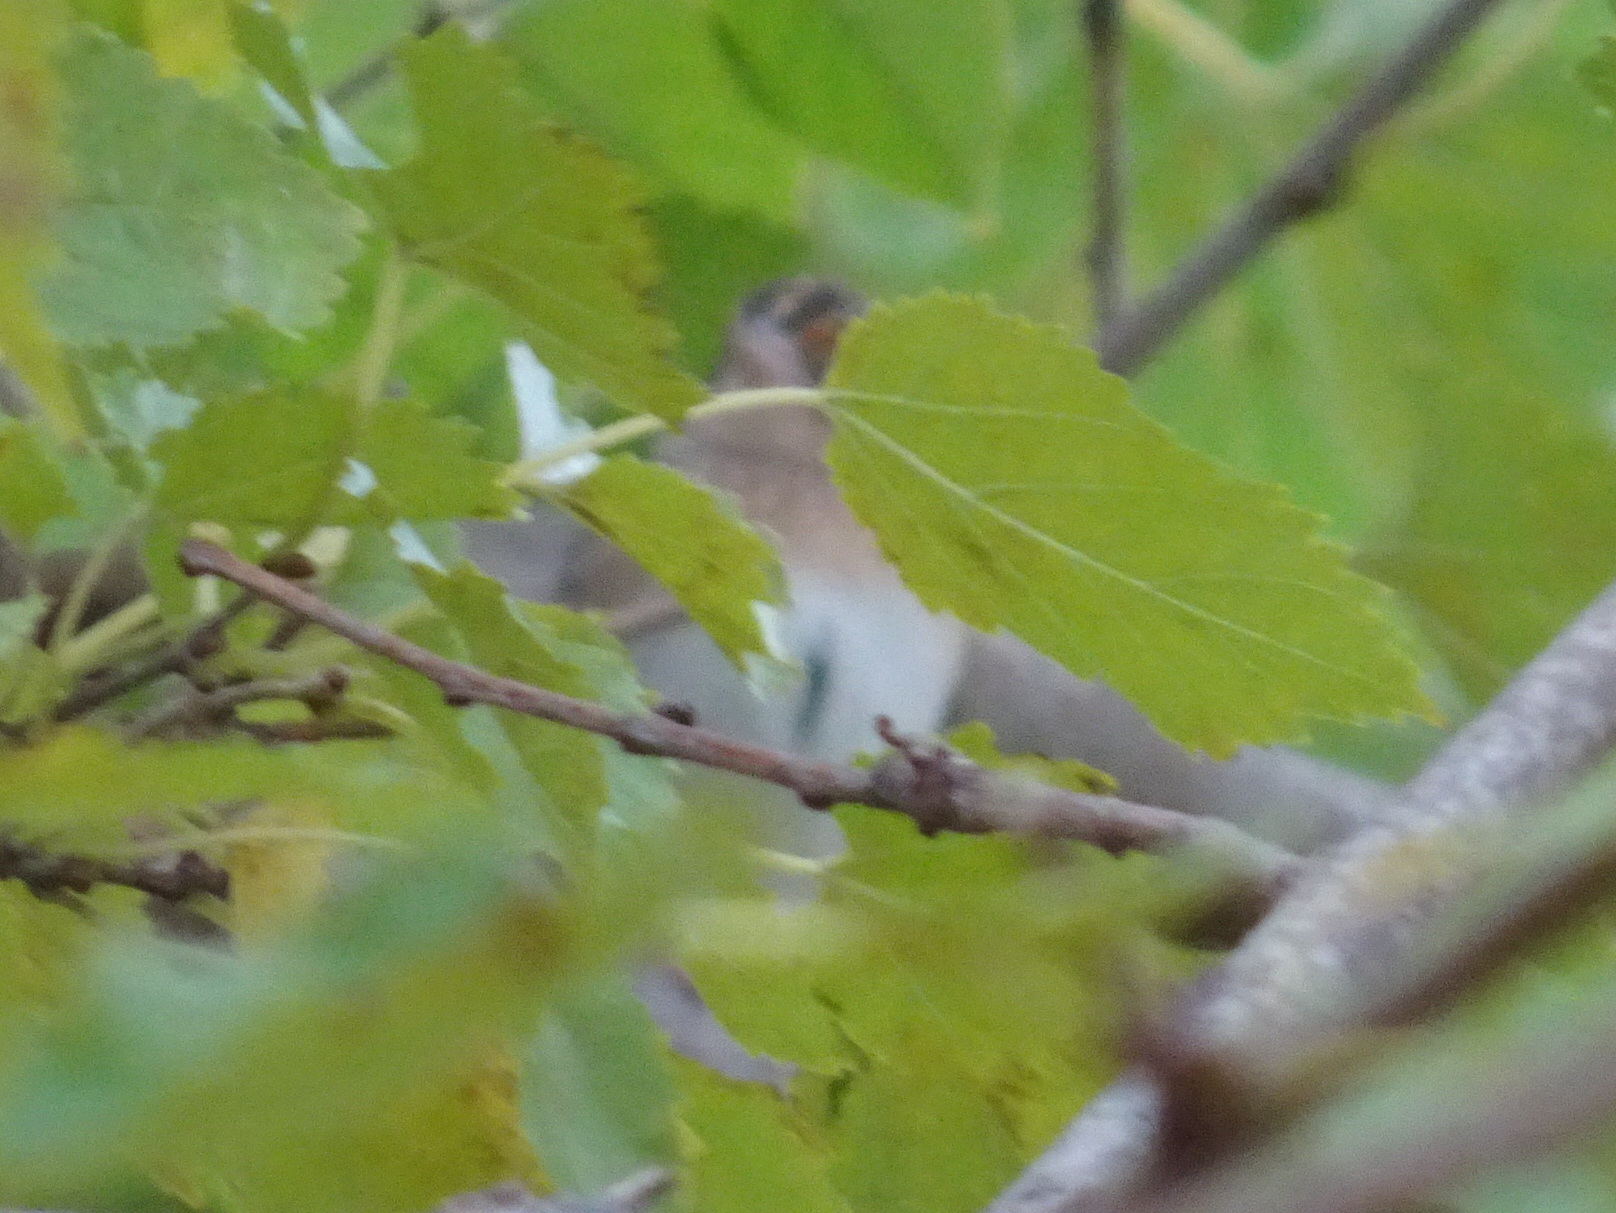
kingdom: Animalia
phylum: Chordata
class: Aves
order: Passeriformes
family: Passerellidae
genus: Ammodramus
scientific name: Ammodramus savannarum
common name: Grasshopper sparrow
